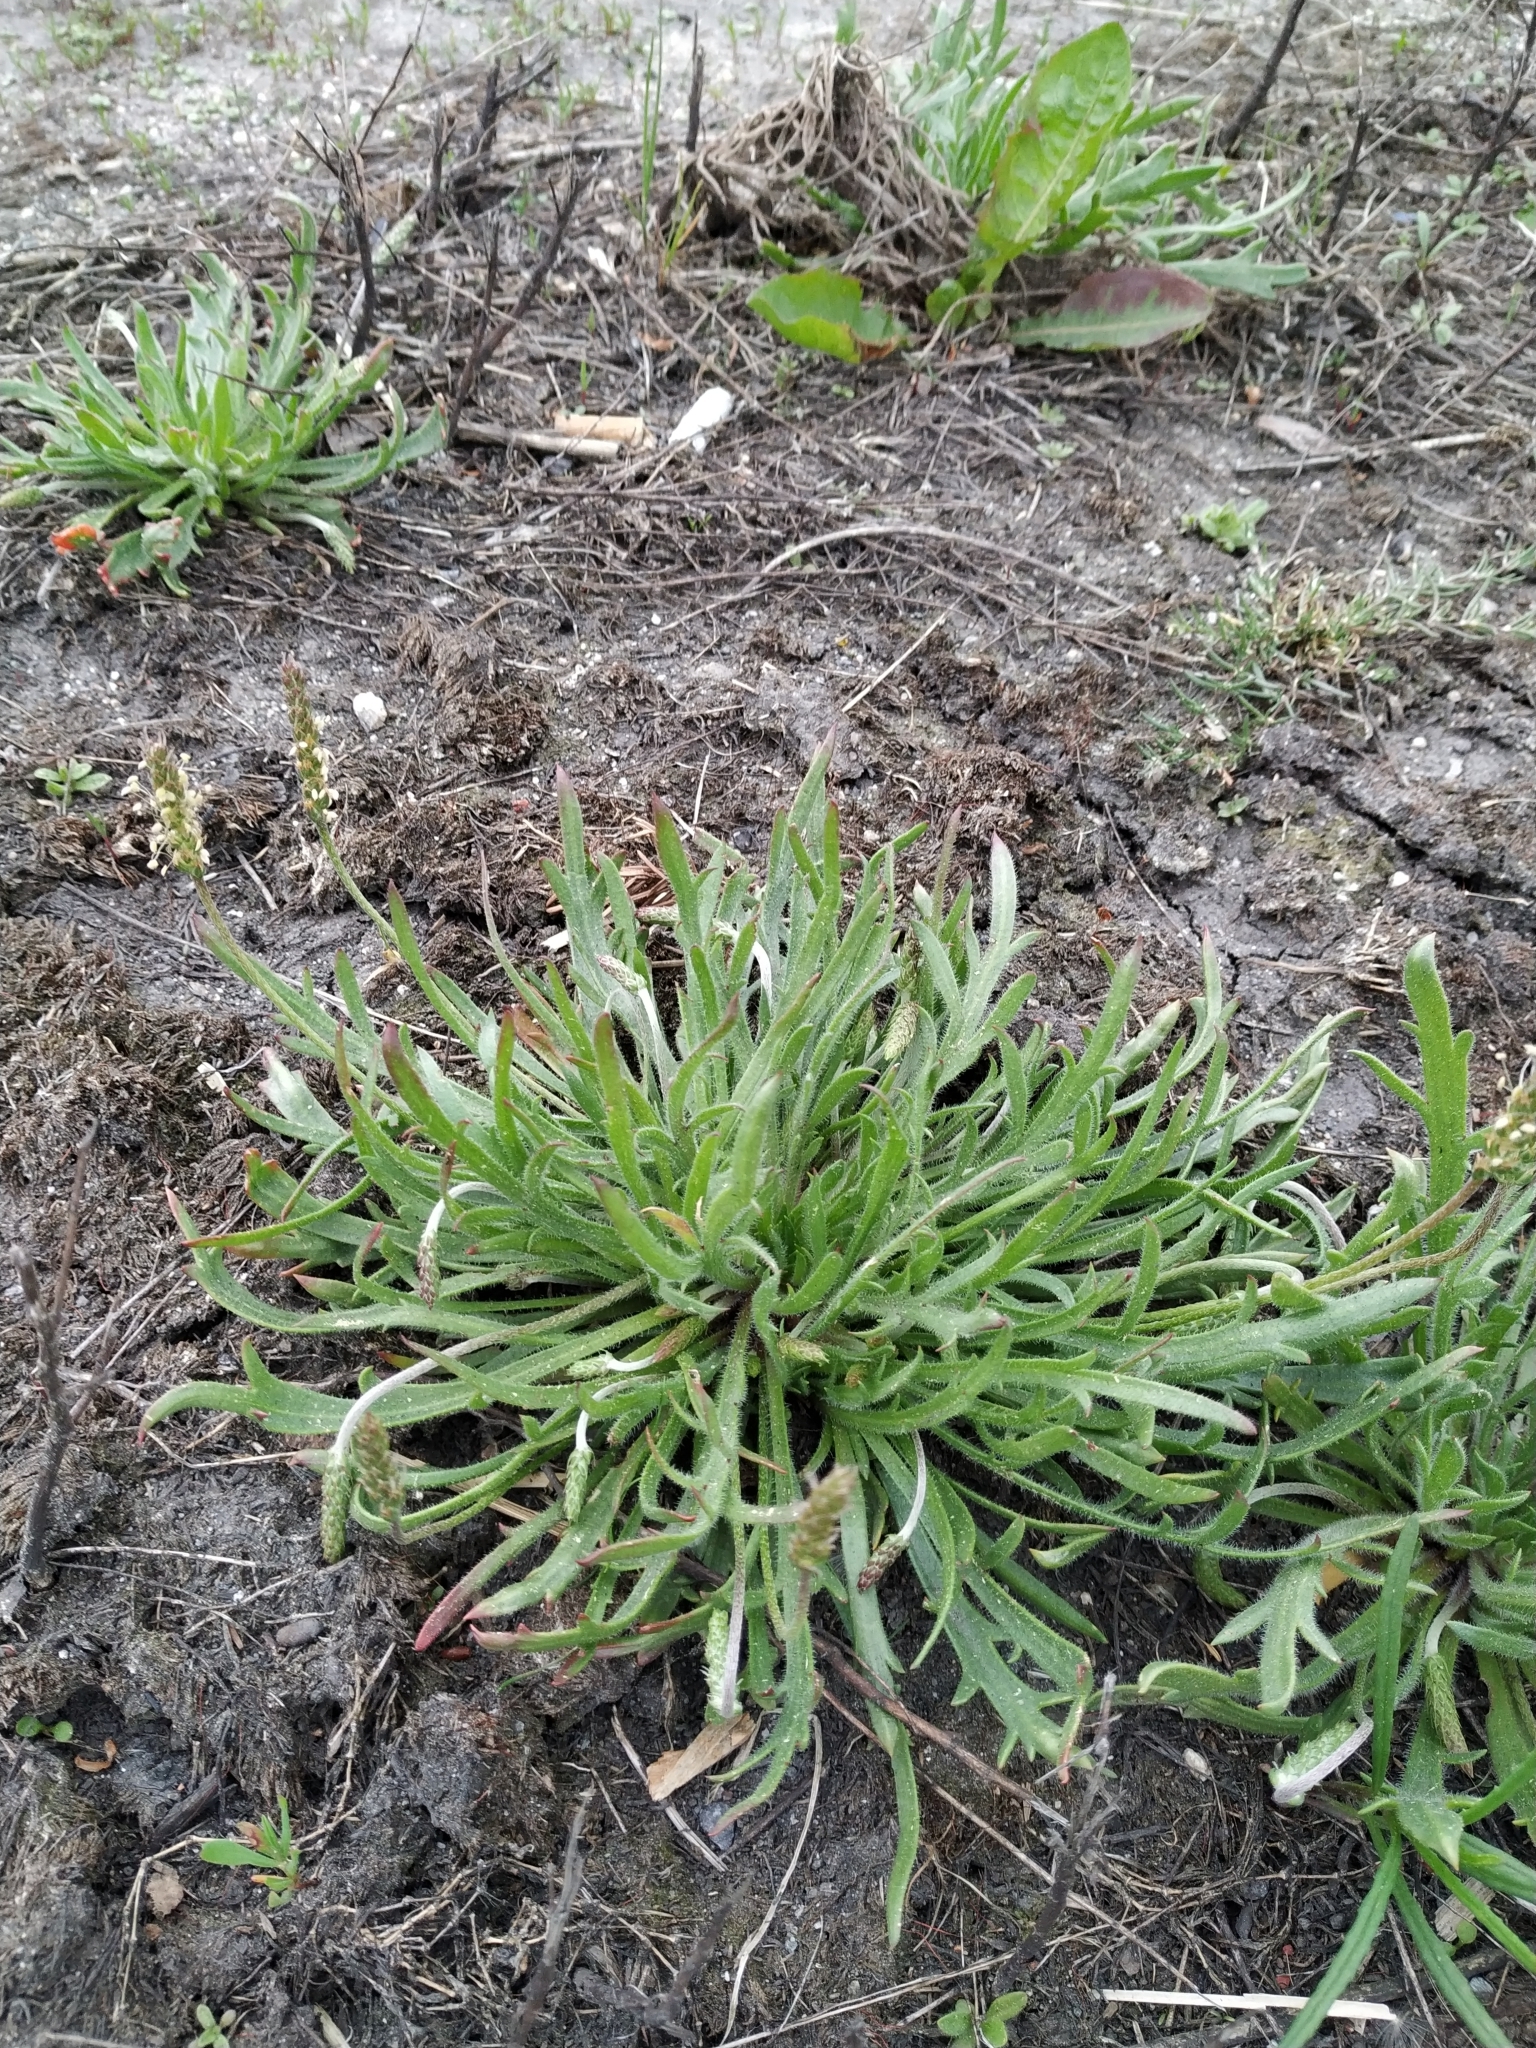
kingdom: Plantae
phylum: Tracheophyta
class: Magnoliopsida
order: Lamiales
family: Plantaginaceae
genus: Plantago
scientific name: Plantago coronopus
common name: Buck's-horn plantain
